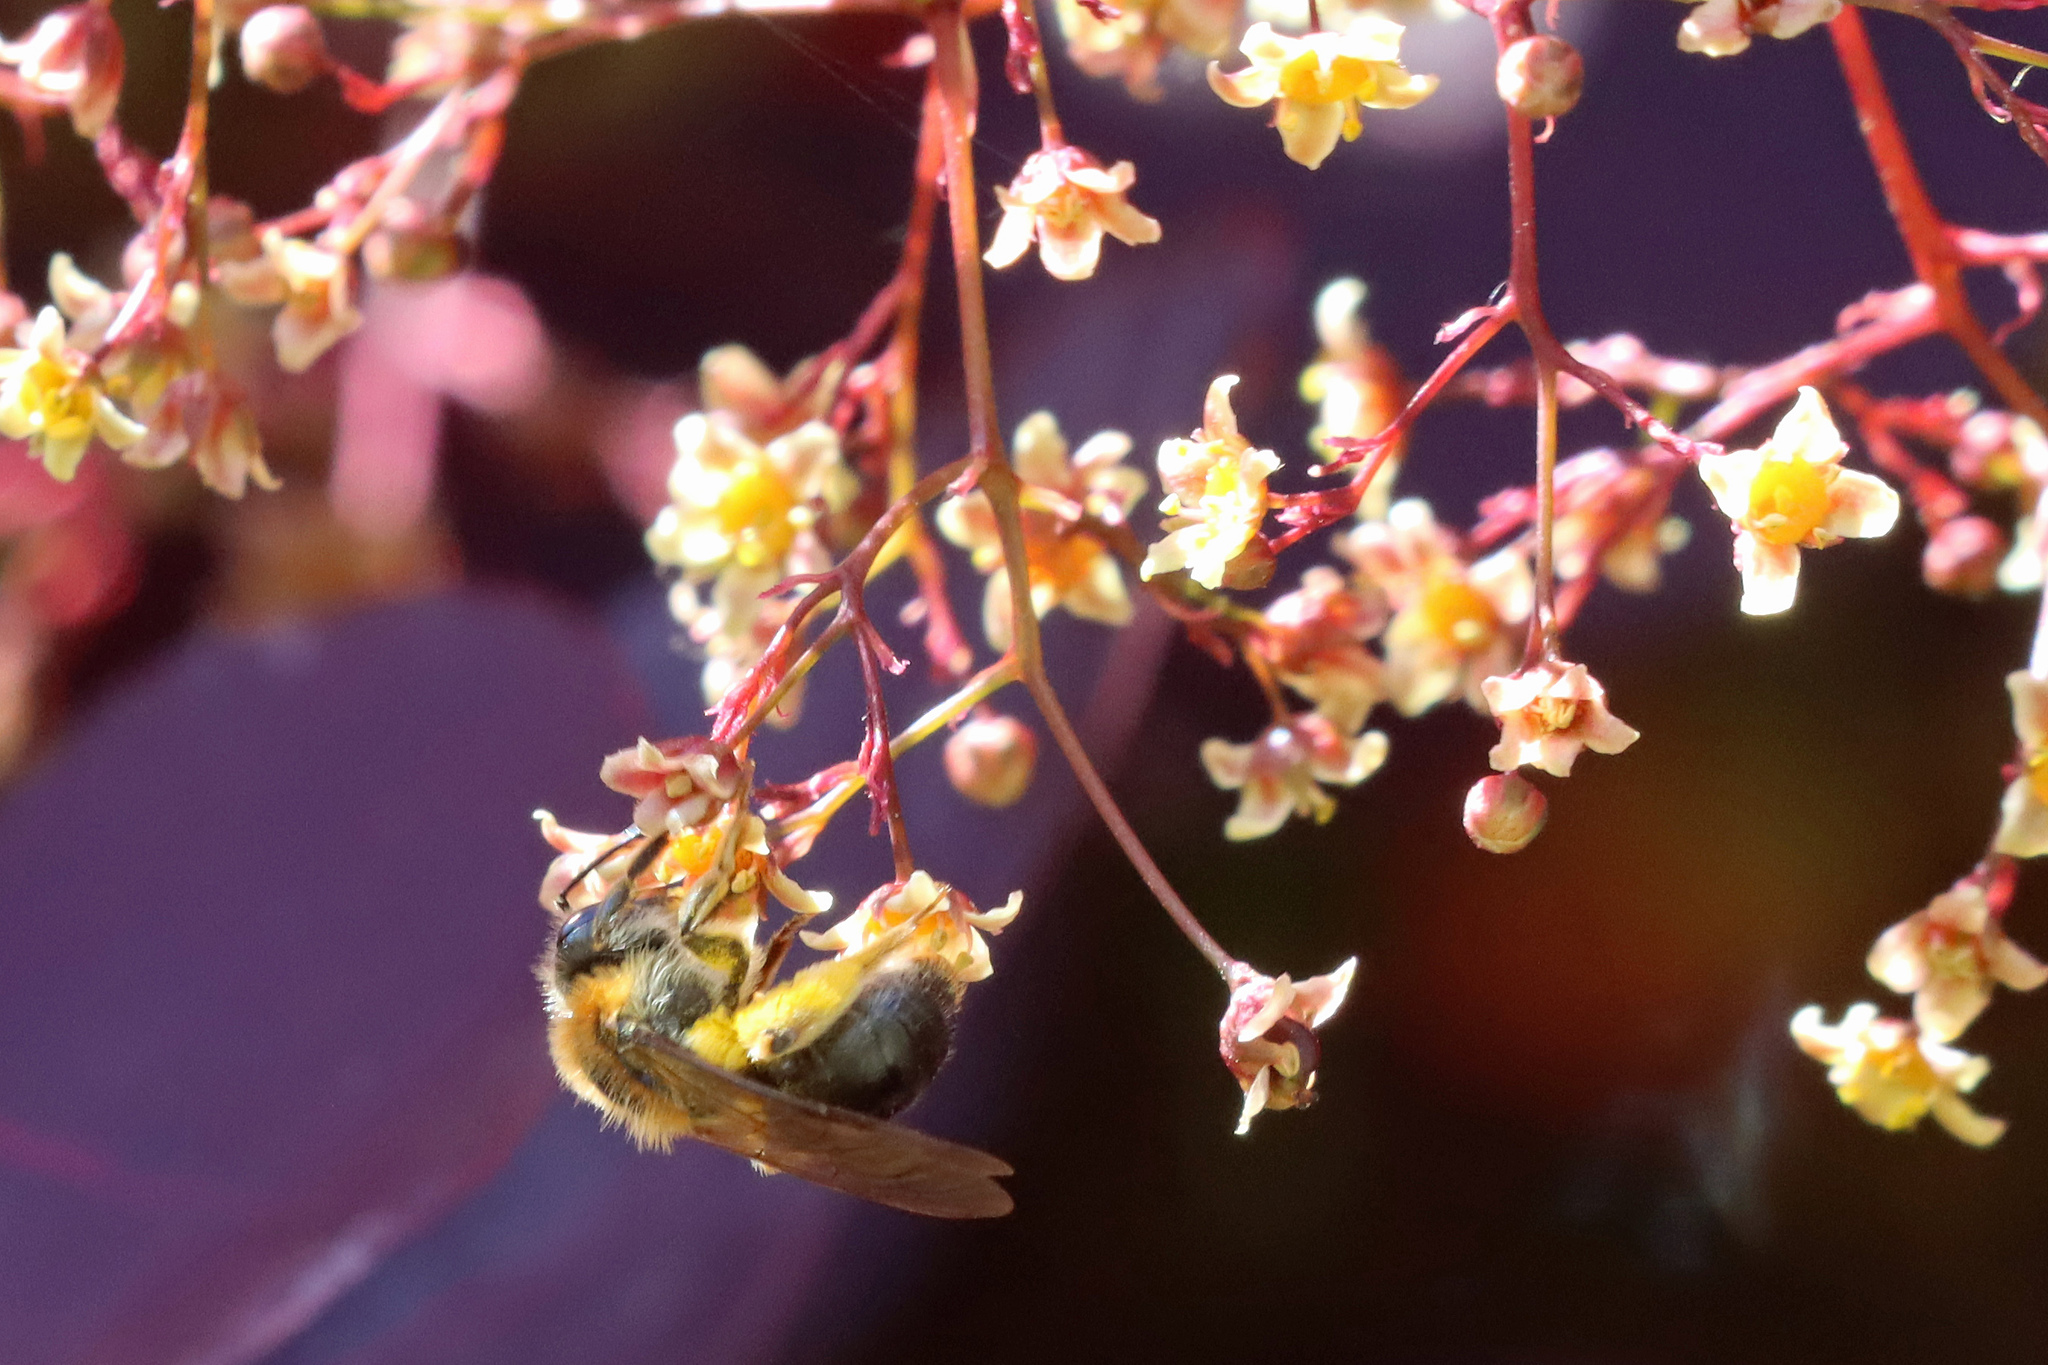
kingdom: Animalia
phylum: Arthropoda
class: Insecta
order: Hymenoptera
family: Andrenidae
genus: Andrena
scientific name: Andrena haemorrhoa
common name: Early mining bee
